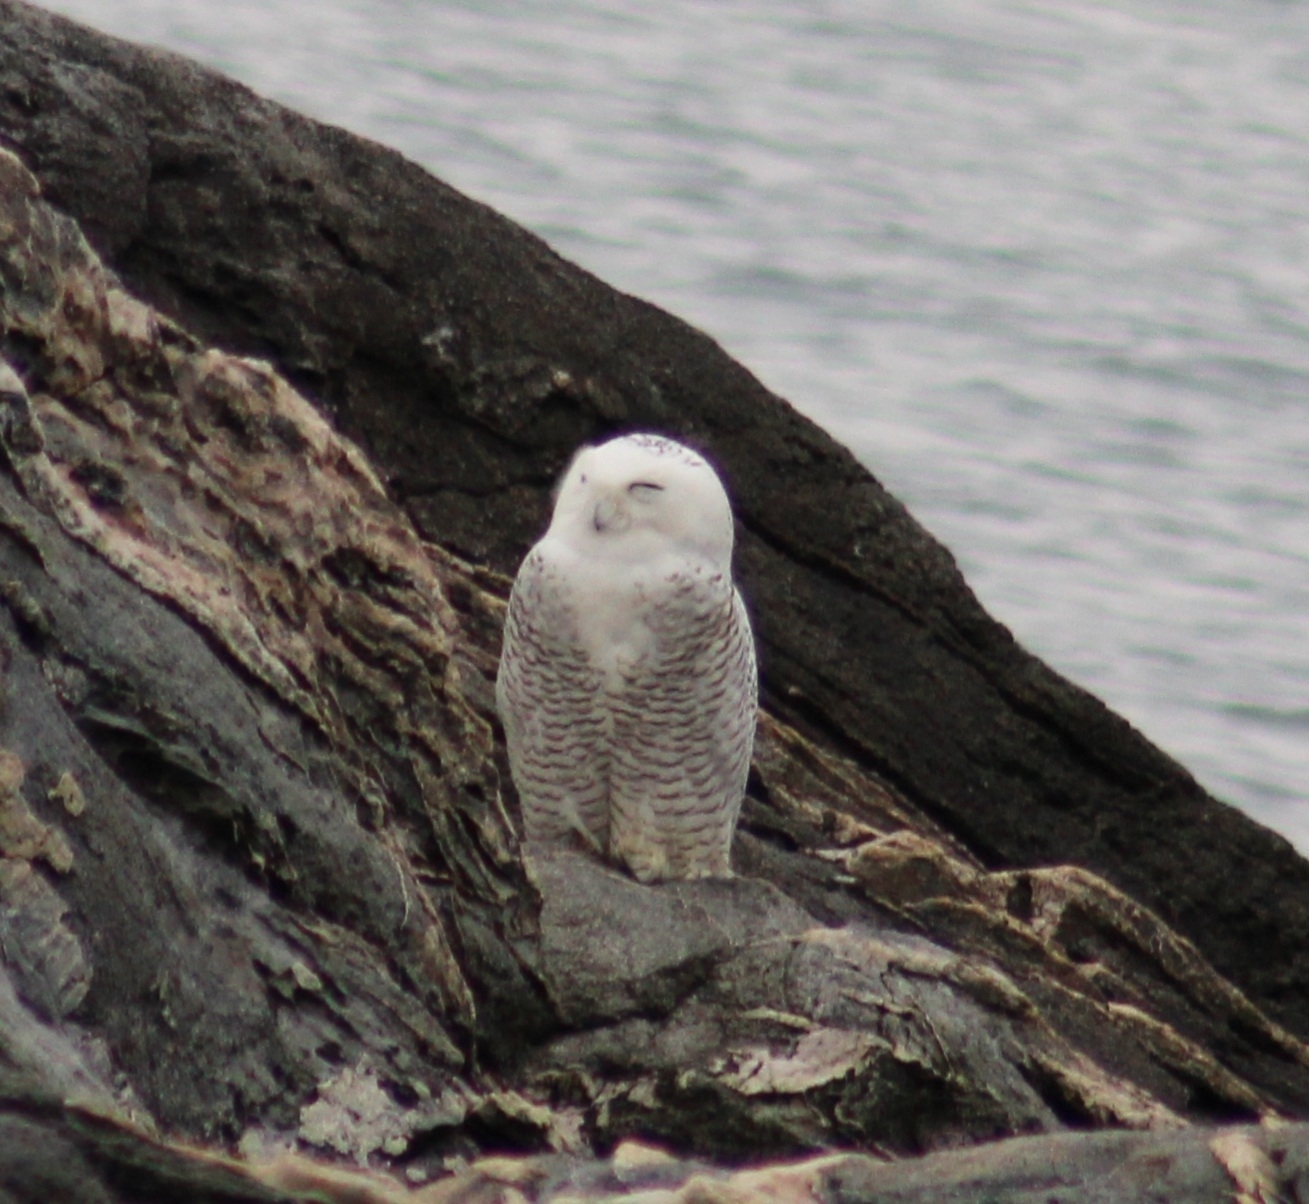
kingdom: Animalia
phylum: Chordata
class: Aves
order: Strigiformes
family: Strigidae
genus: Bubo
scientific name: Bubo scandiacus
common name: Snowy owl
